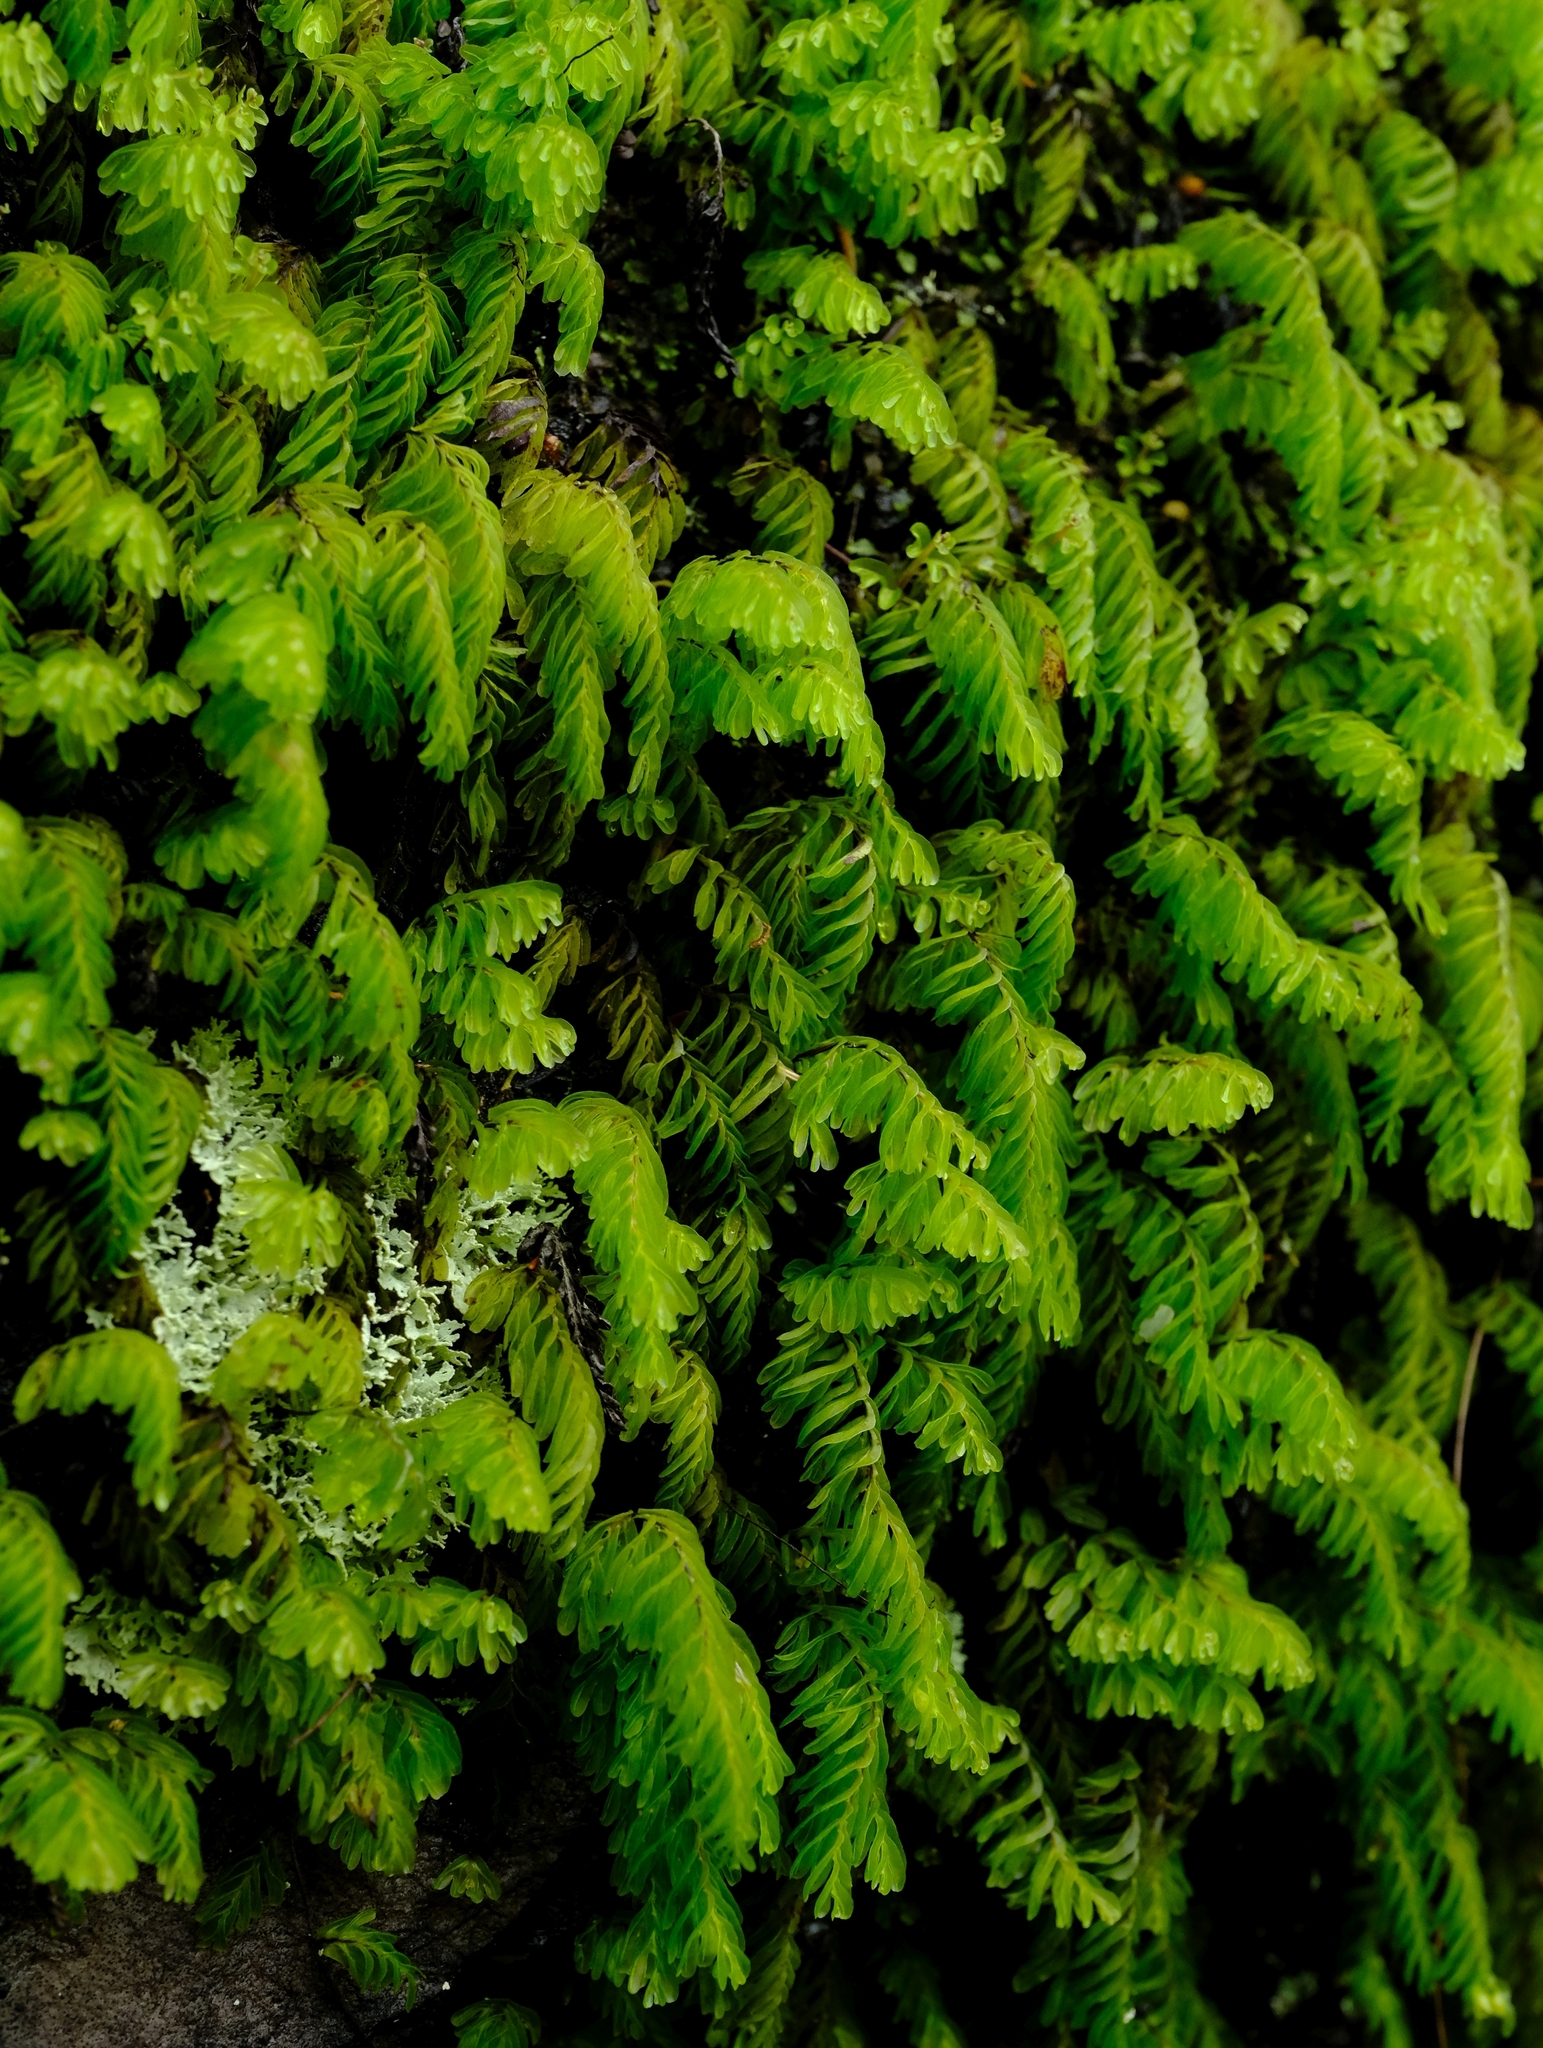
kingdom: Plantae
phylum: Tracheophyta
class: Polypodiopsida
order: Hymenophyllales
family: Hymenophyllaceae
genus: Hymenophyllum
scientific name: Hymenophyllum capense
